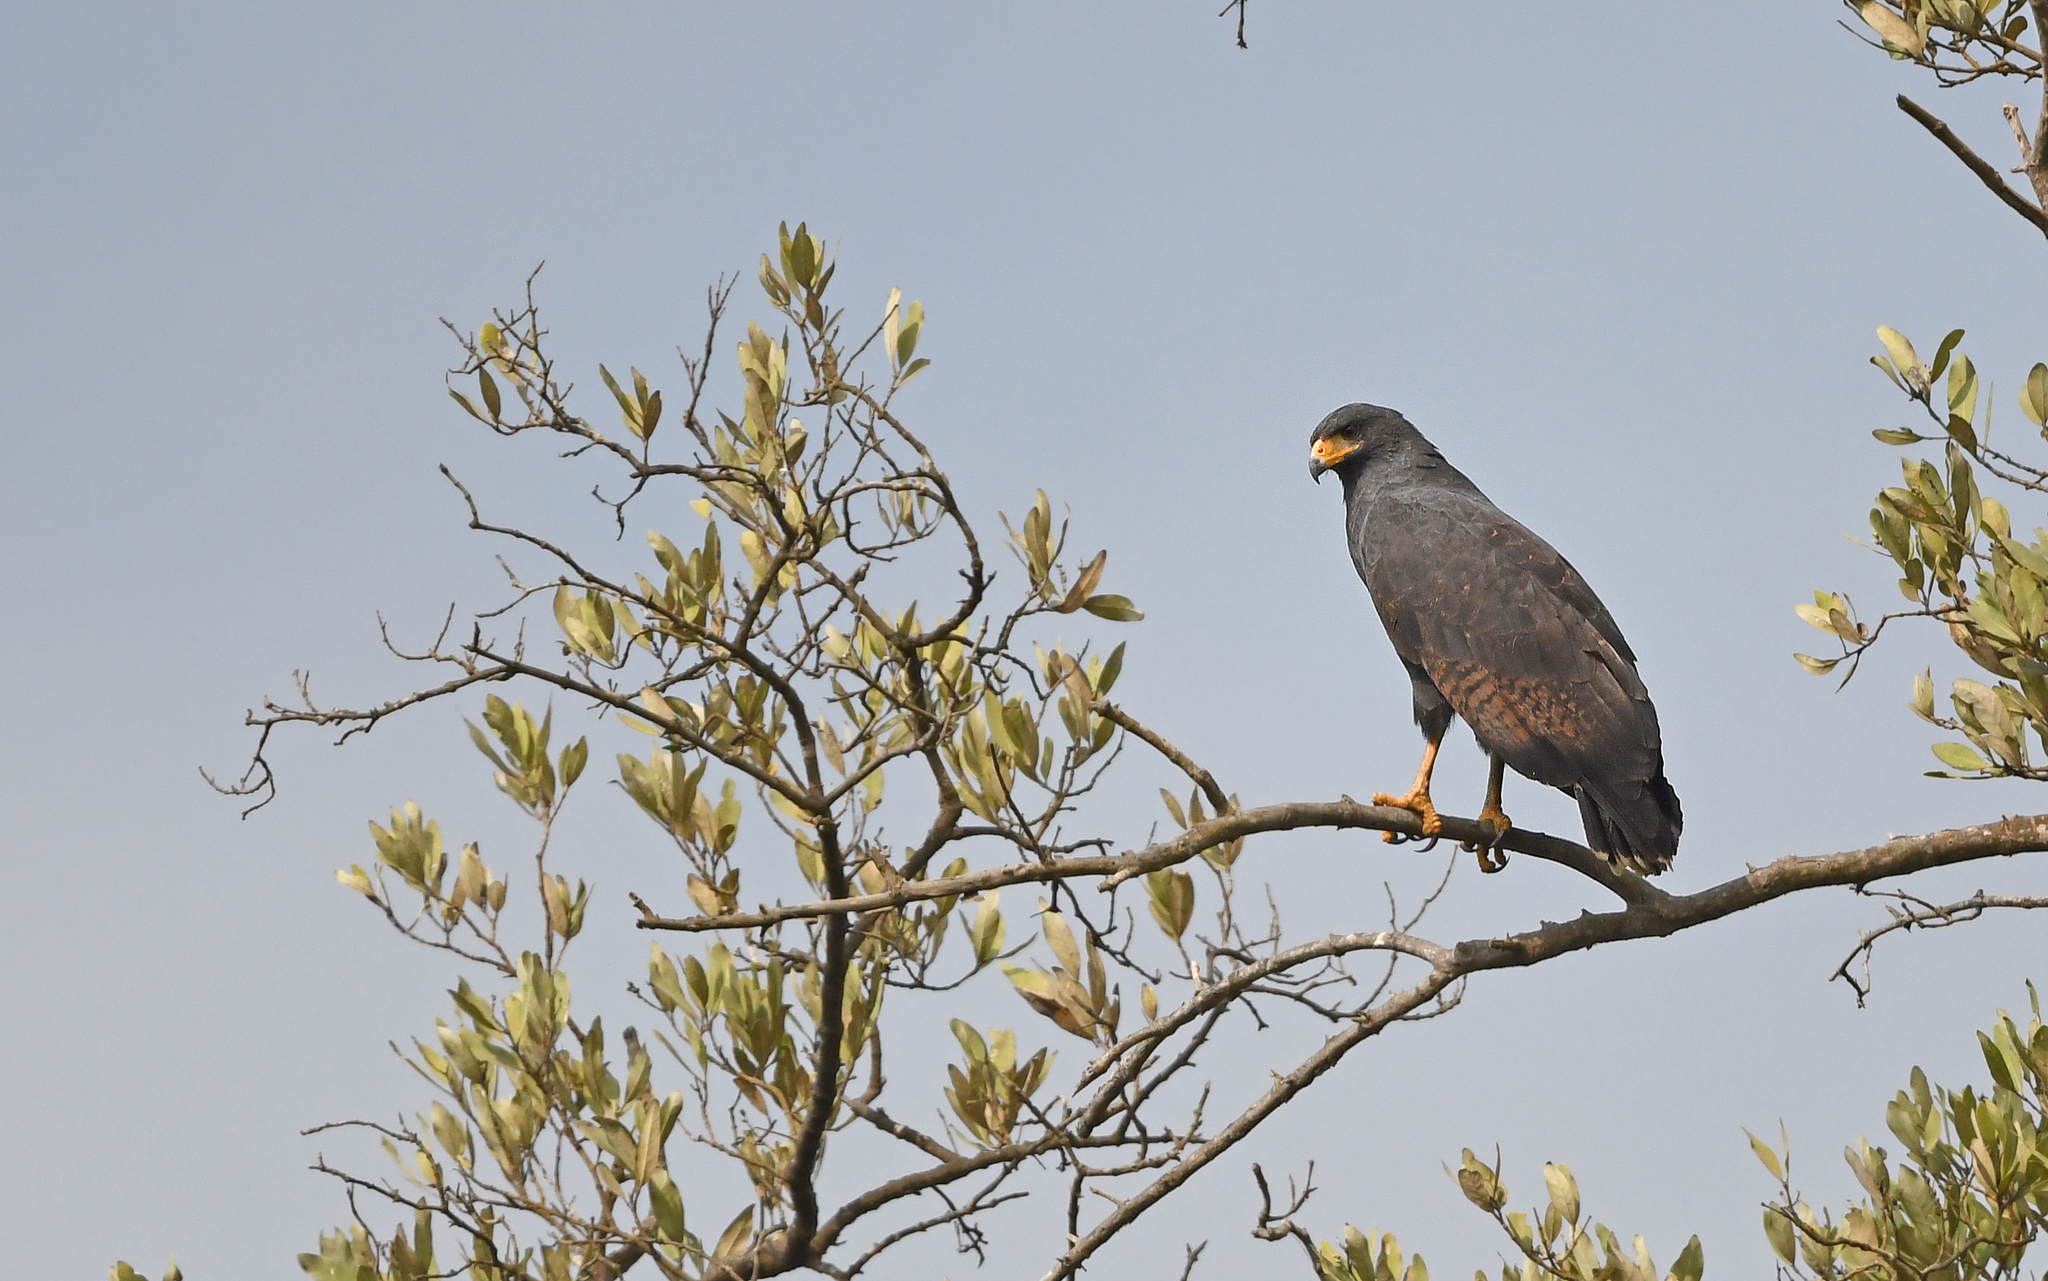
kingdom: Animalia
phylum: Chordata
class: Aves
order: Accipitriformes
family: Accipitridae
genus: Buteogallus
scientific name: Buteogallus anthracinus
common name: Common black hawk
